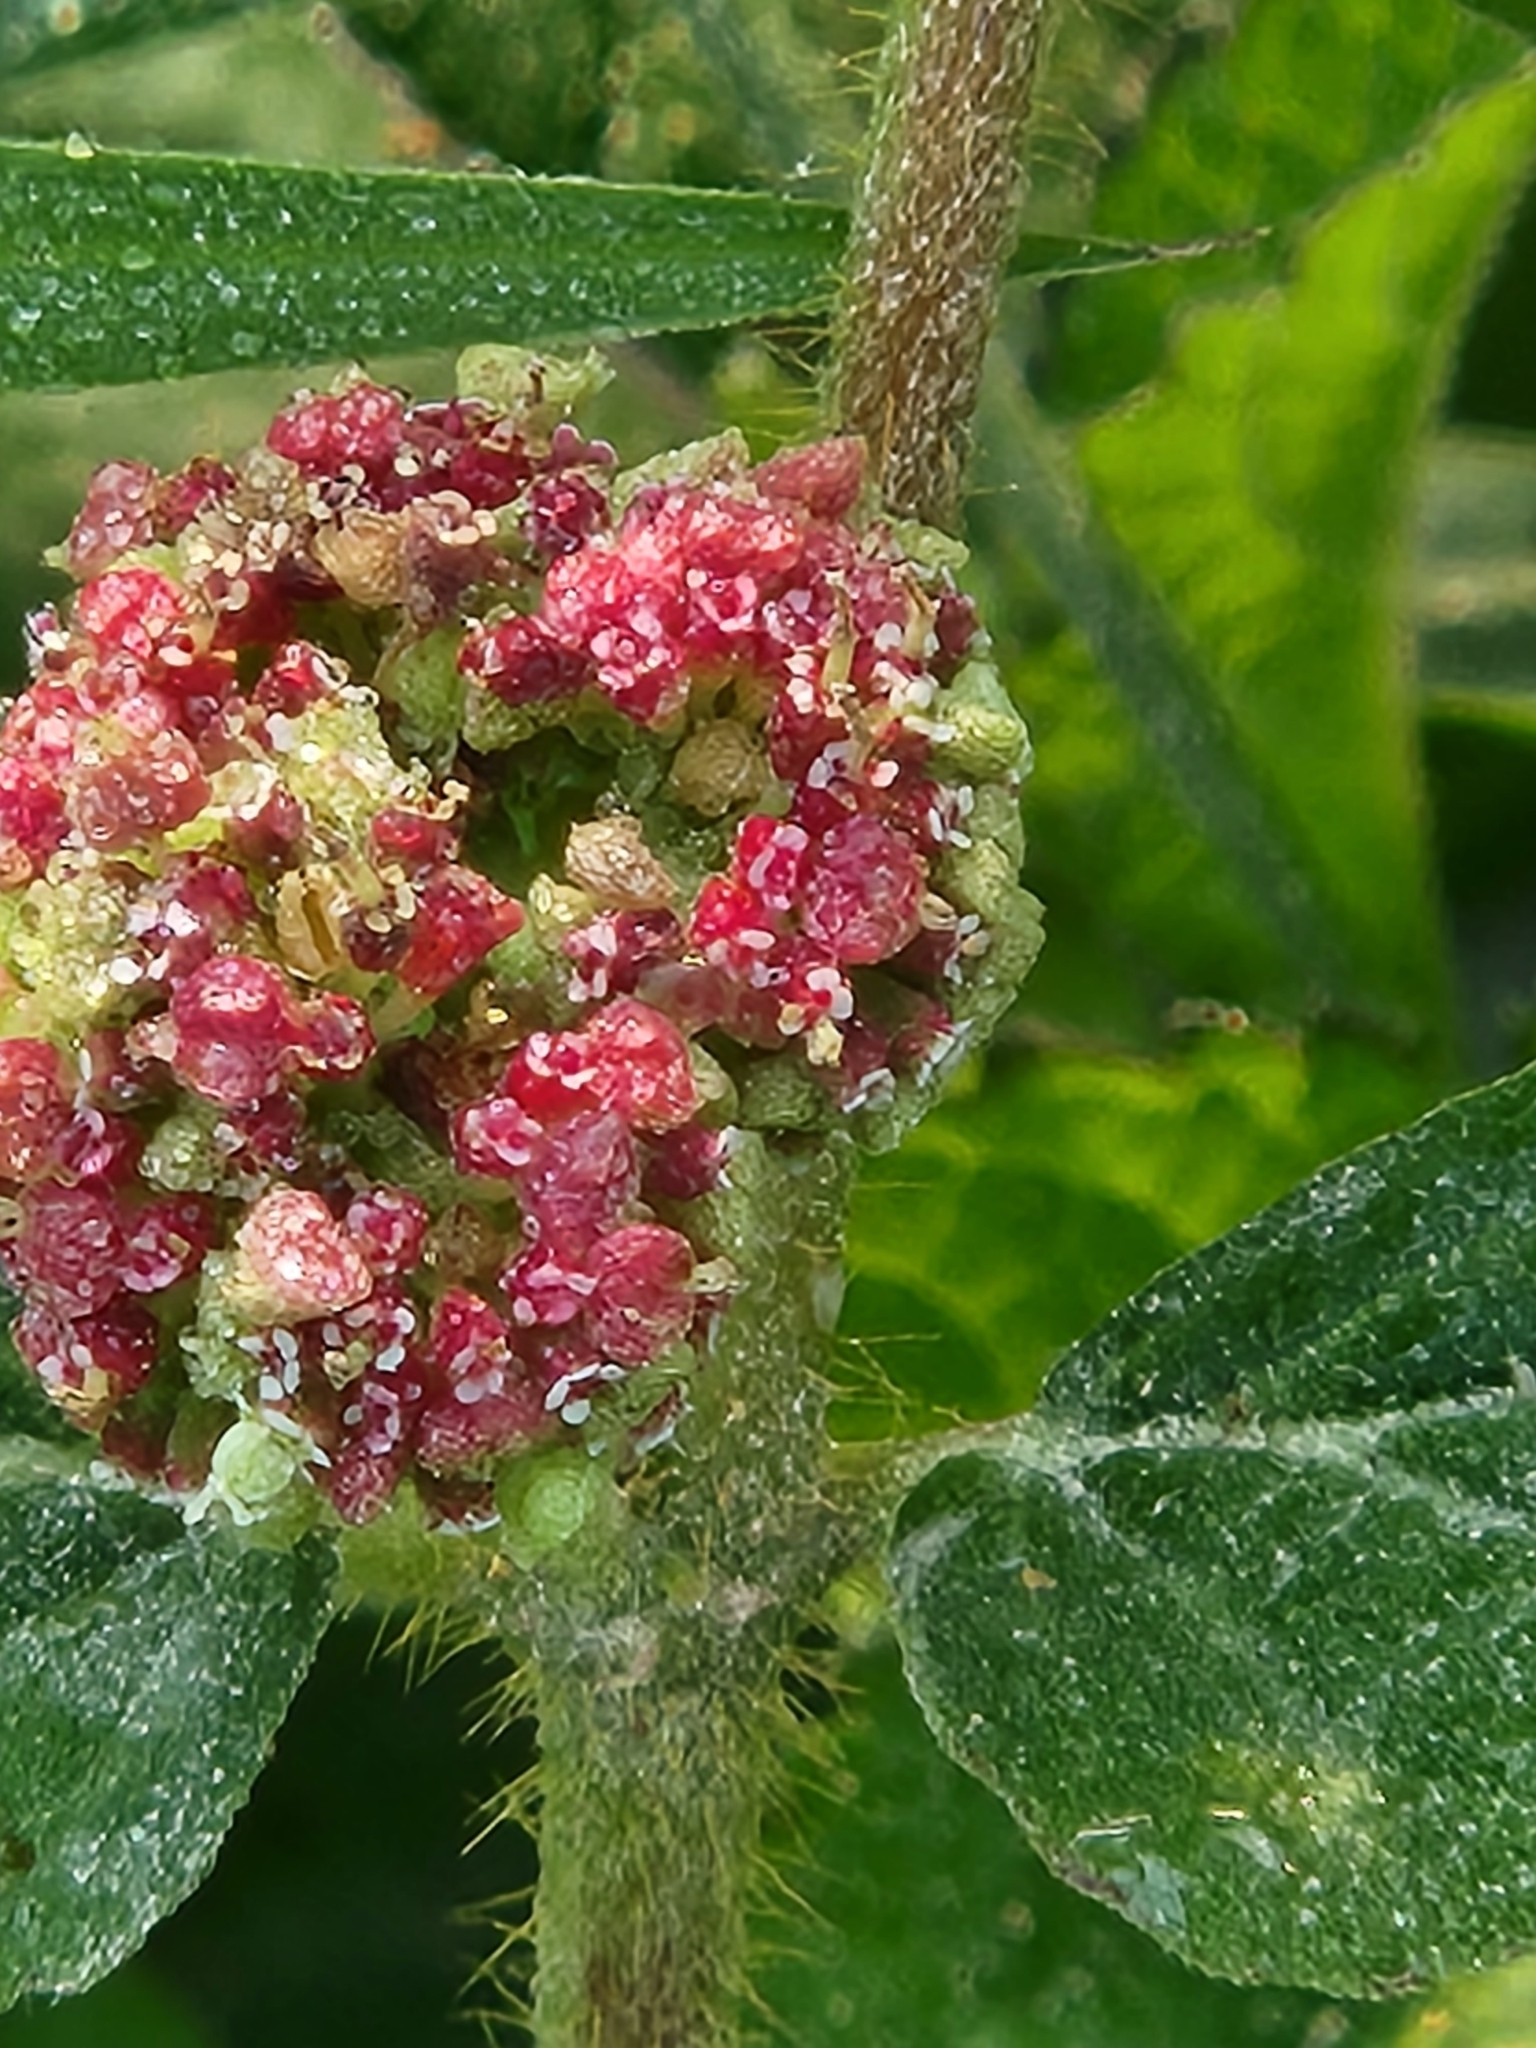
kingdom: Plantae
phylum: Tracheophyta
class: Magnoliopsida
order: Malpighiales
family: Euphorbiaceae
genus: Euphorbia
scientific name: Euphorbia hirta
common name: Pillpod sandmat
